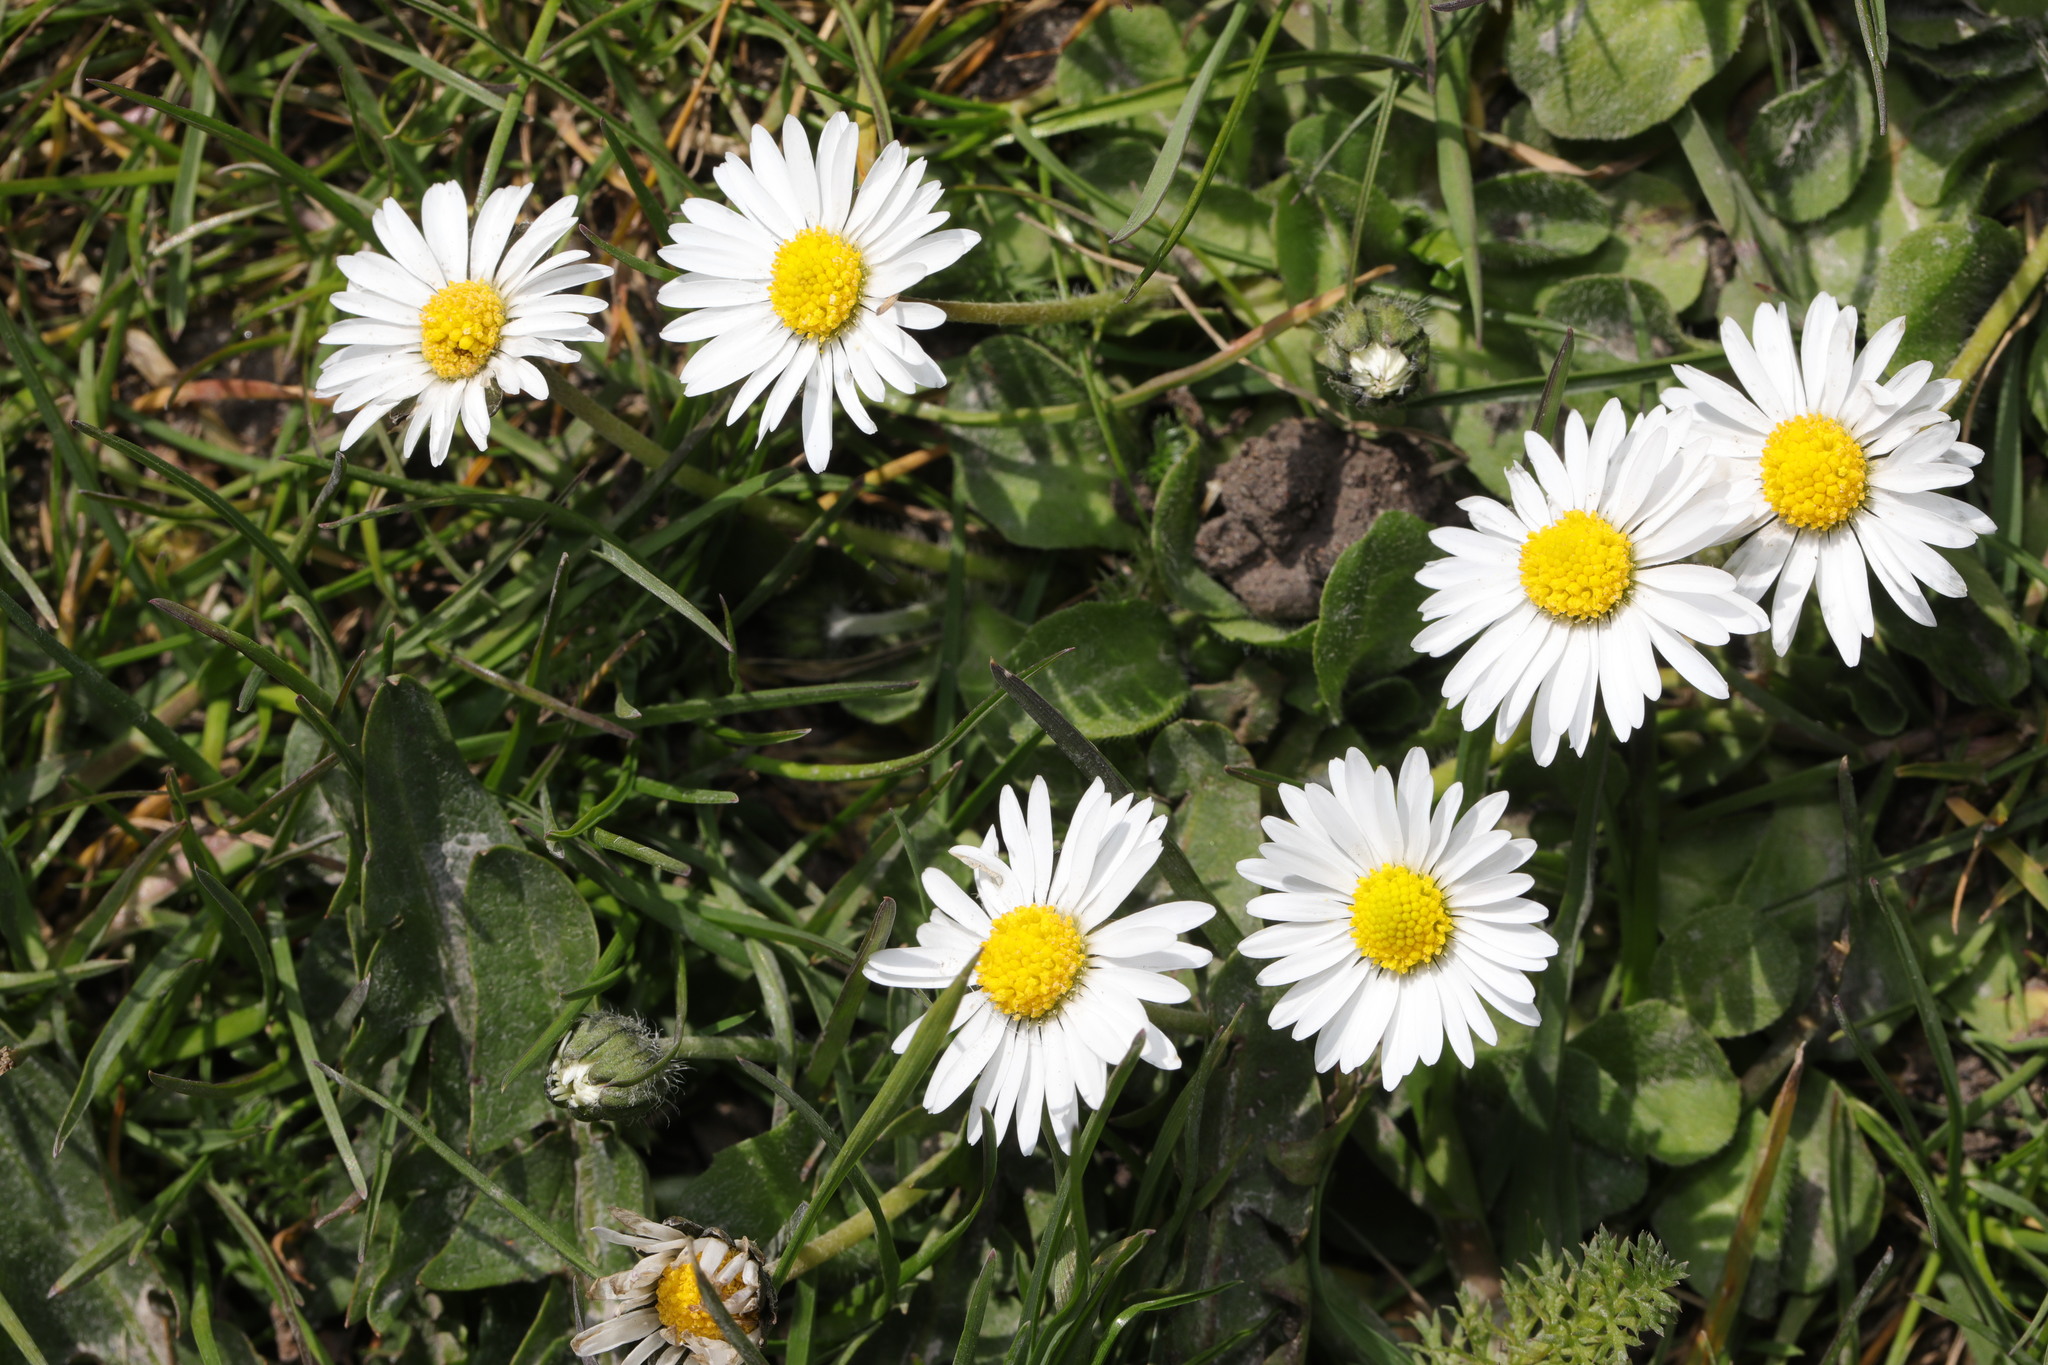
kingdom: Plantae
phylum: Tracheophyta
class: Magnoliopsida
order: Asterales
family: Asteraceae
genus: Bellis
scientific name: Bellis perennis
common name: Lawndaisy
